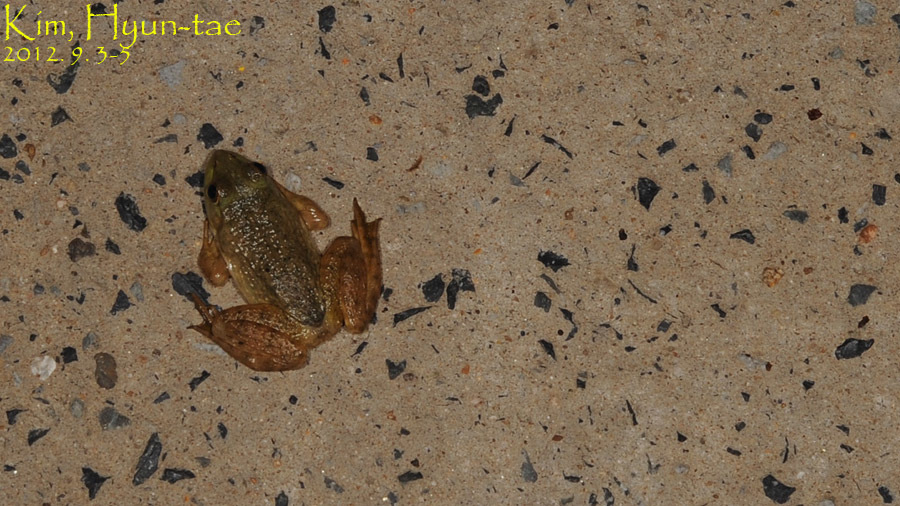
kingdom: Animalia
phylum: Chordata
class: Amphibia
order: Anura
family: Ranidae
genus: Lithobates
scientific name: Lithobates catesbeianus
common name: American bullfrog
